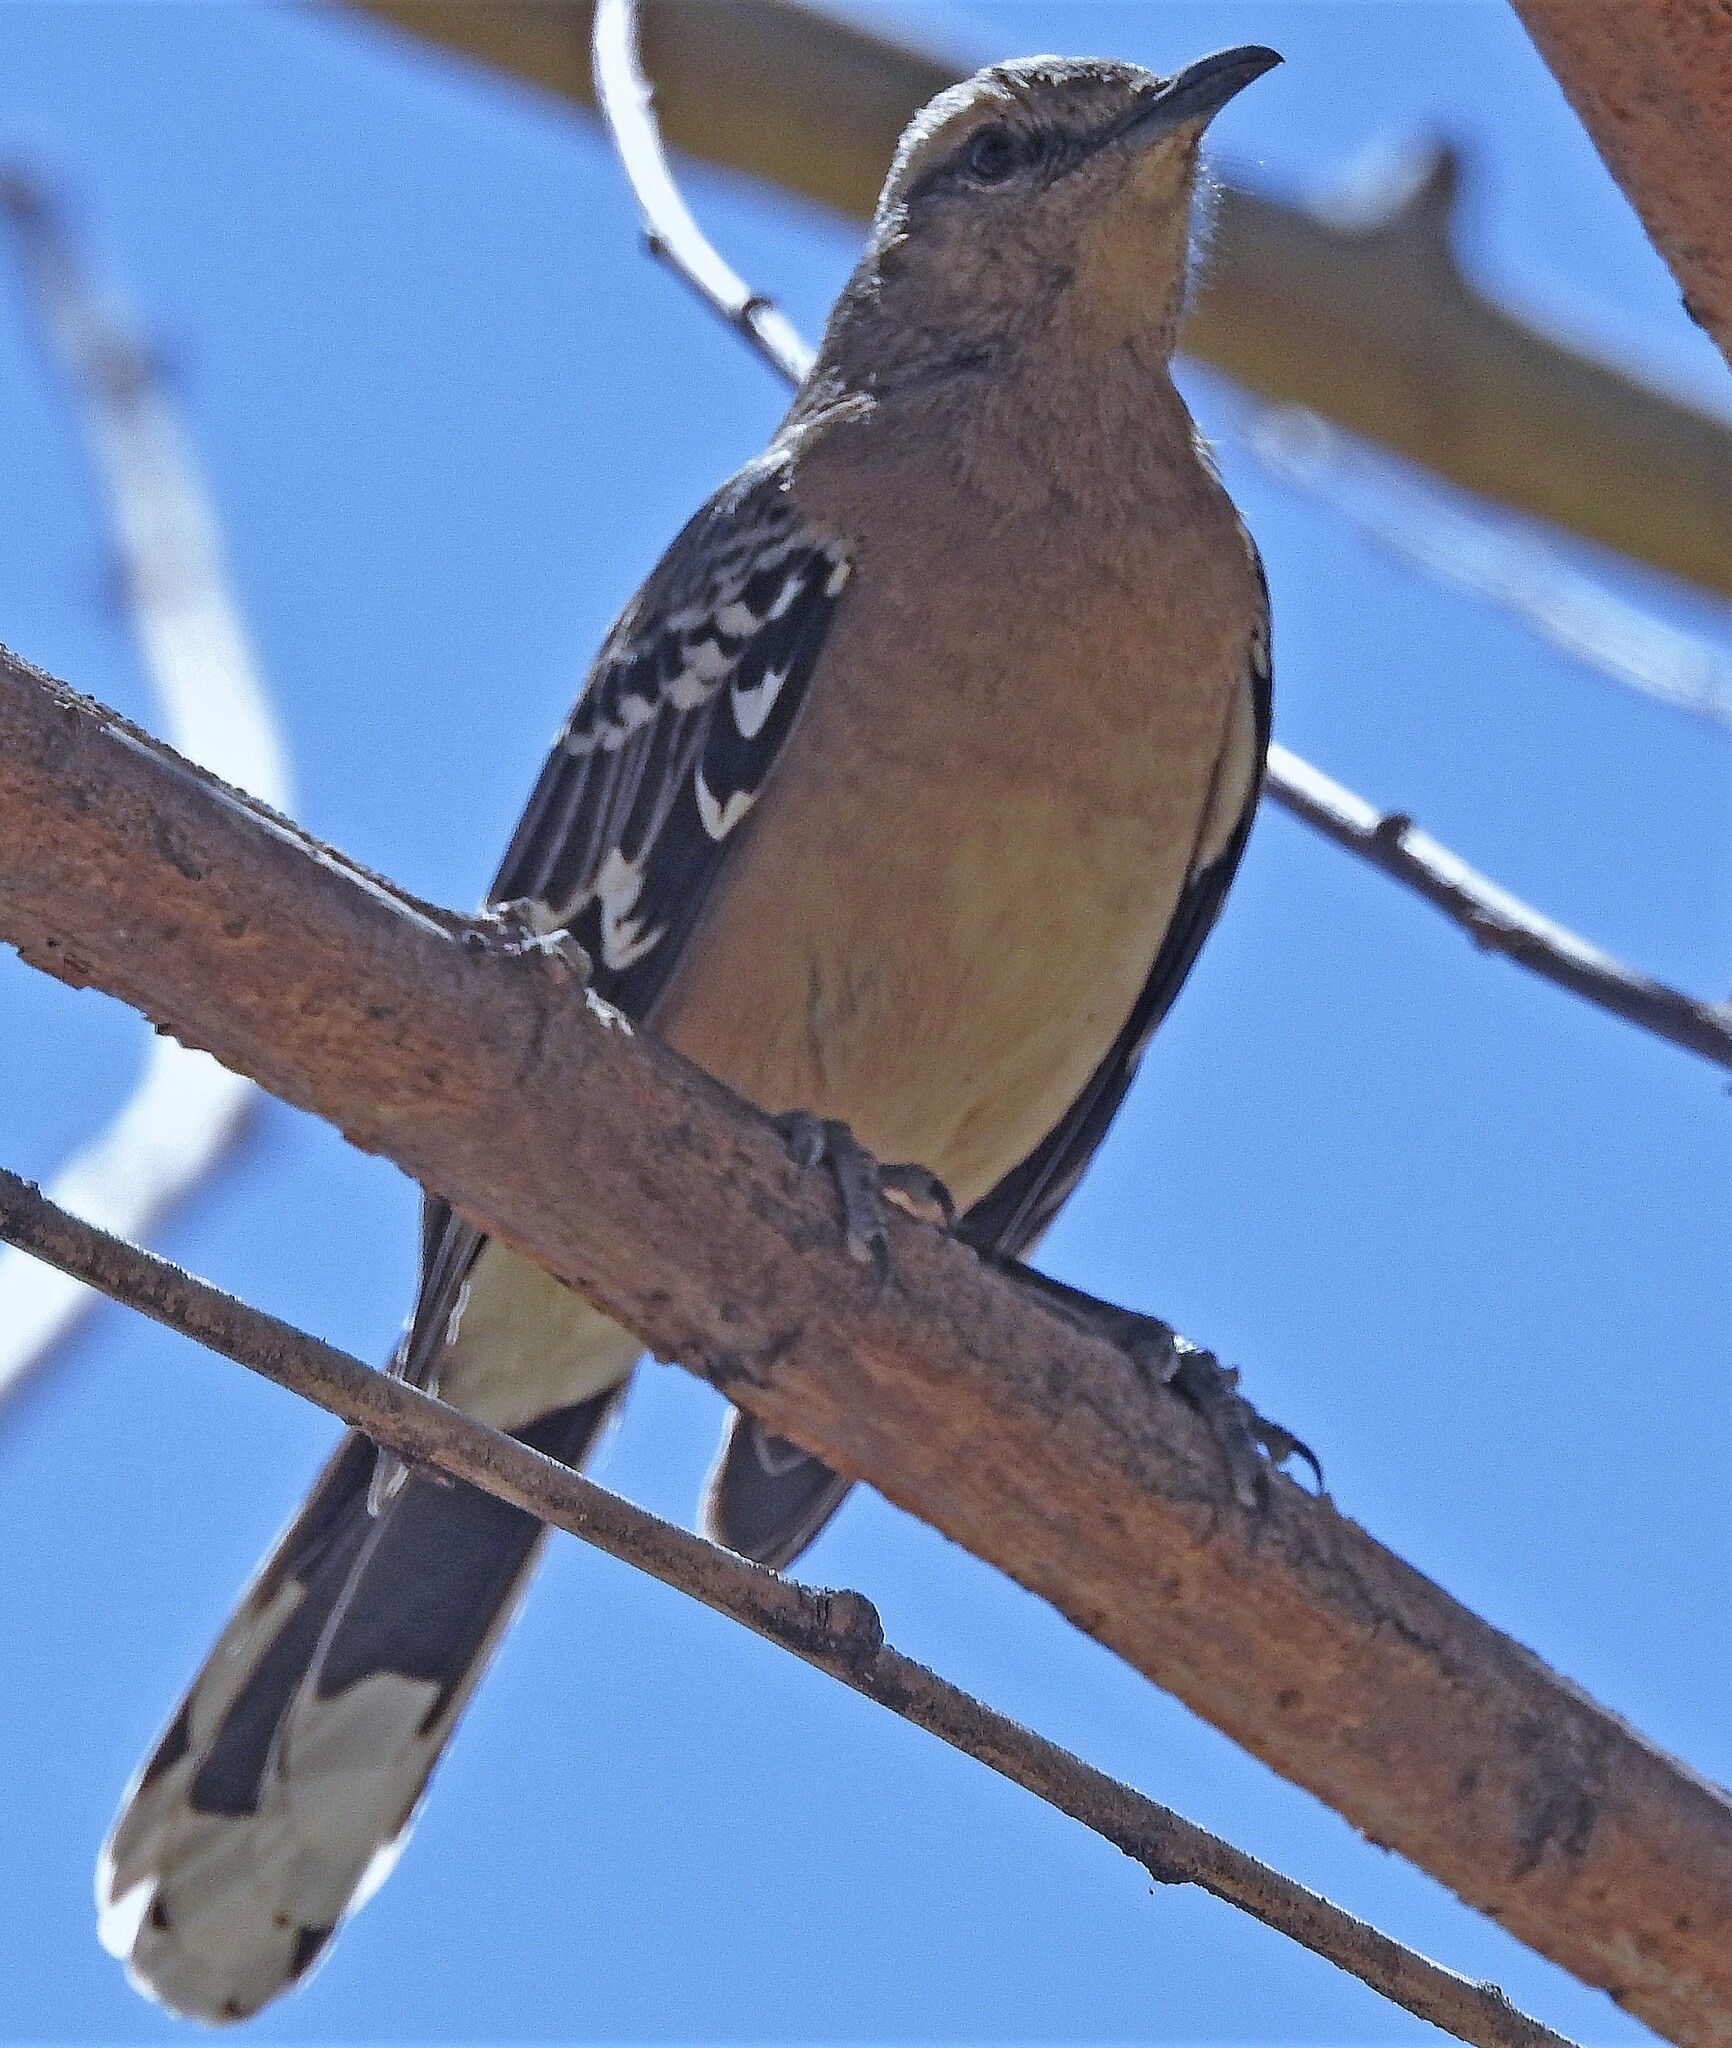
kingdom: Animalia
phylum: Chordata
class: Aves
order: Passeriformes
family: Mimidae
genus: Mimus
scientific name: Mimus patagonicus
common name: Patagonian mockingbird
